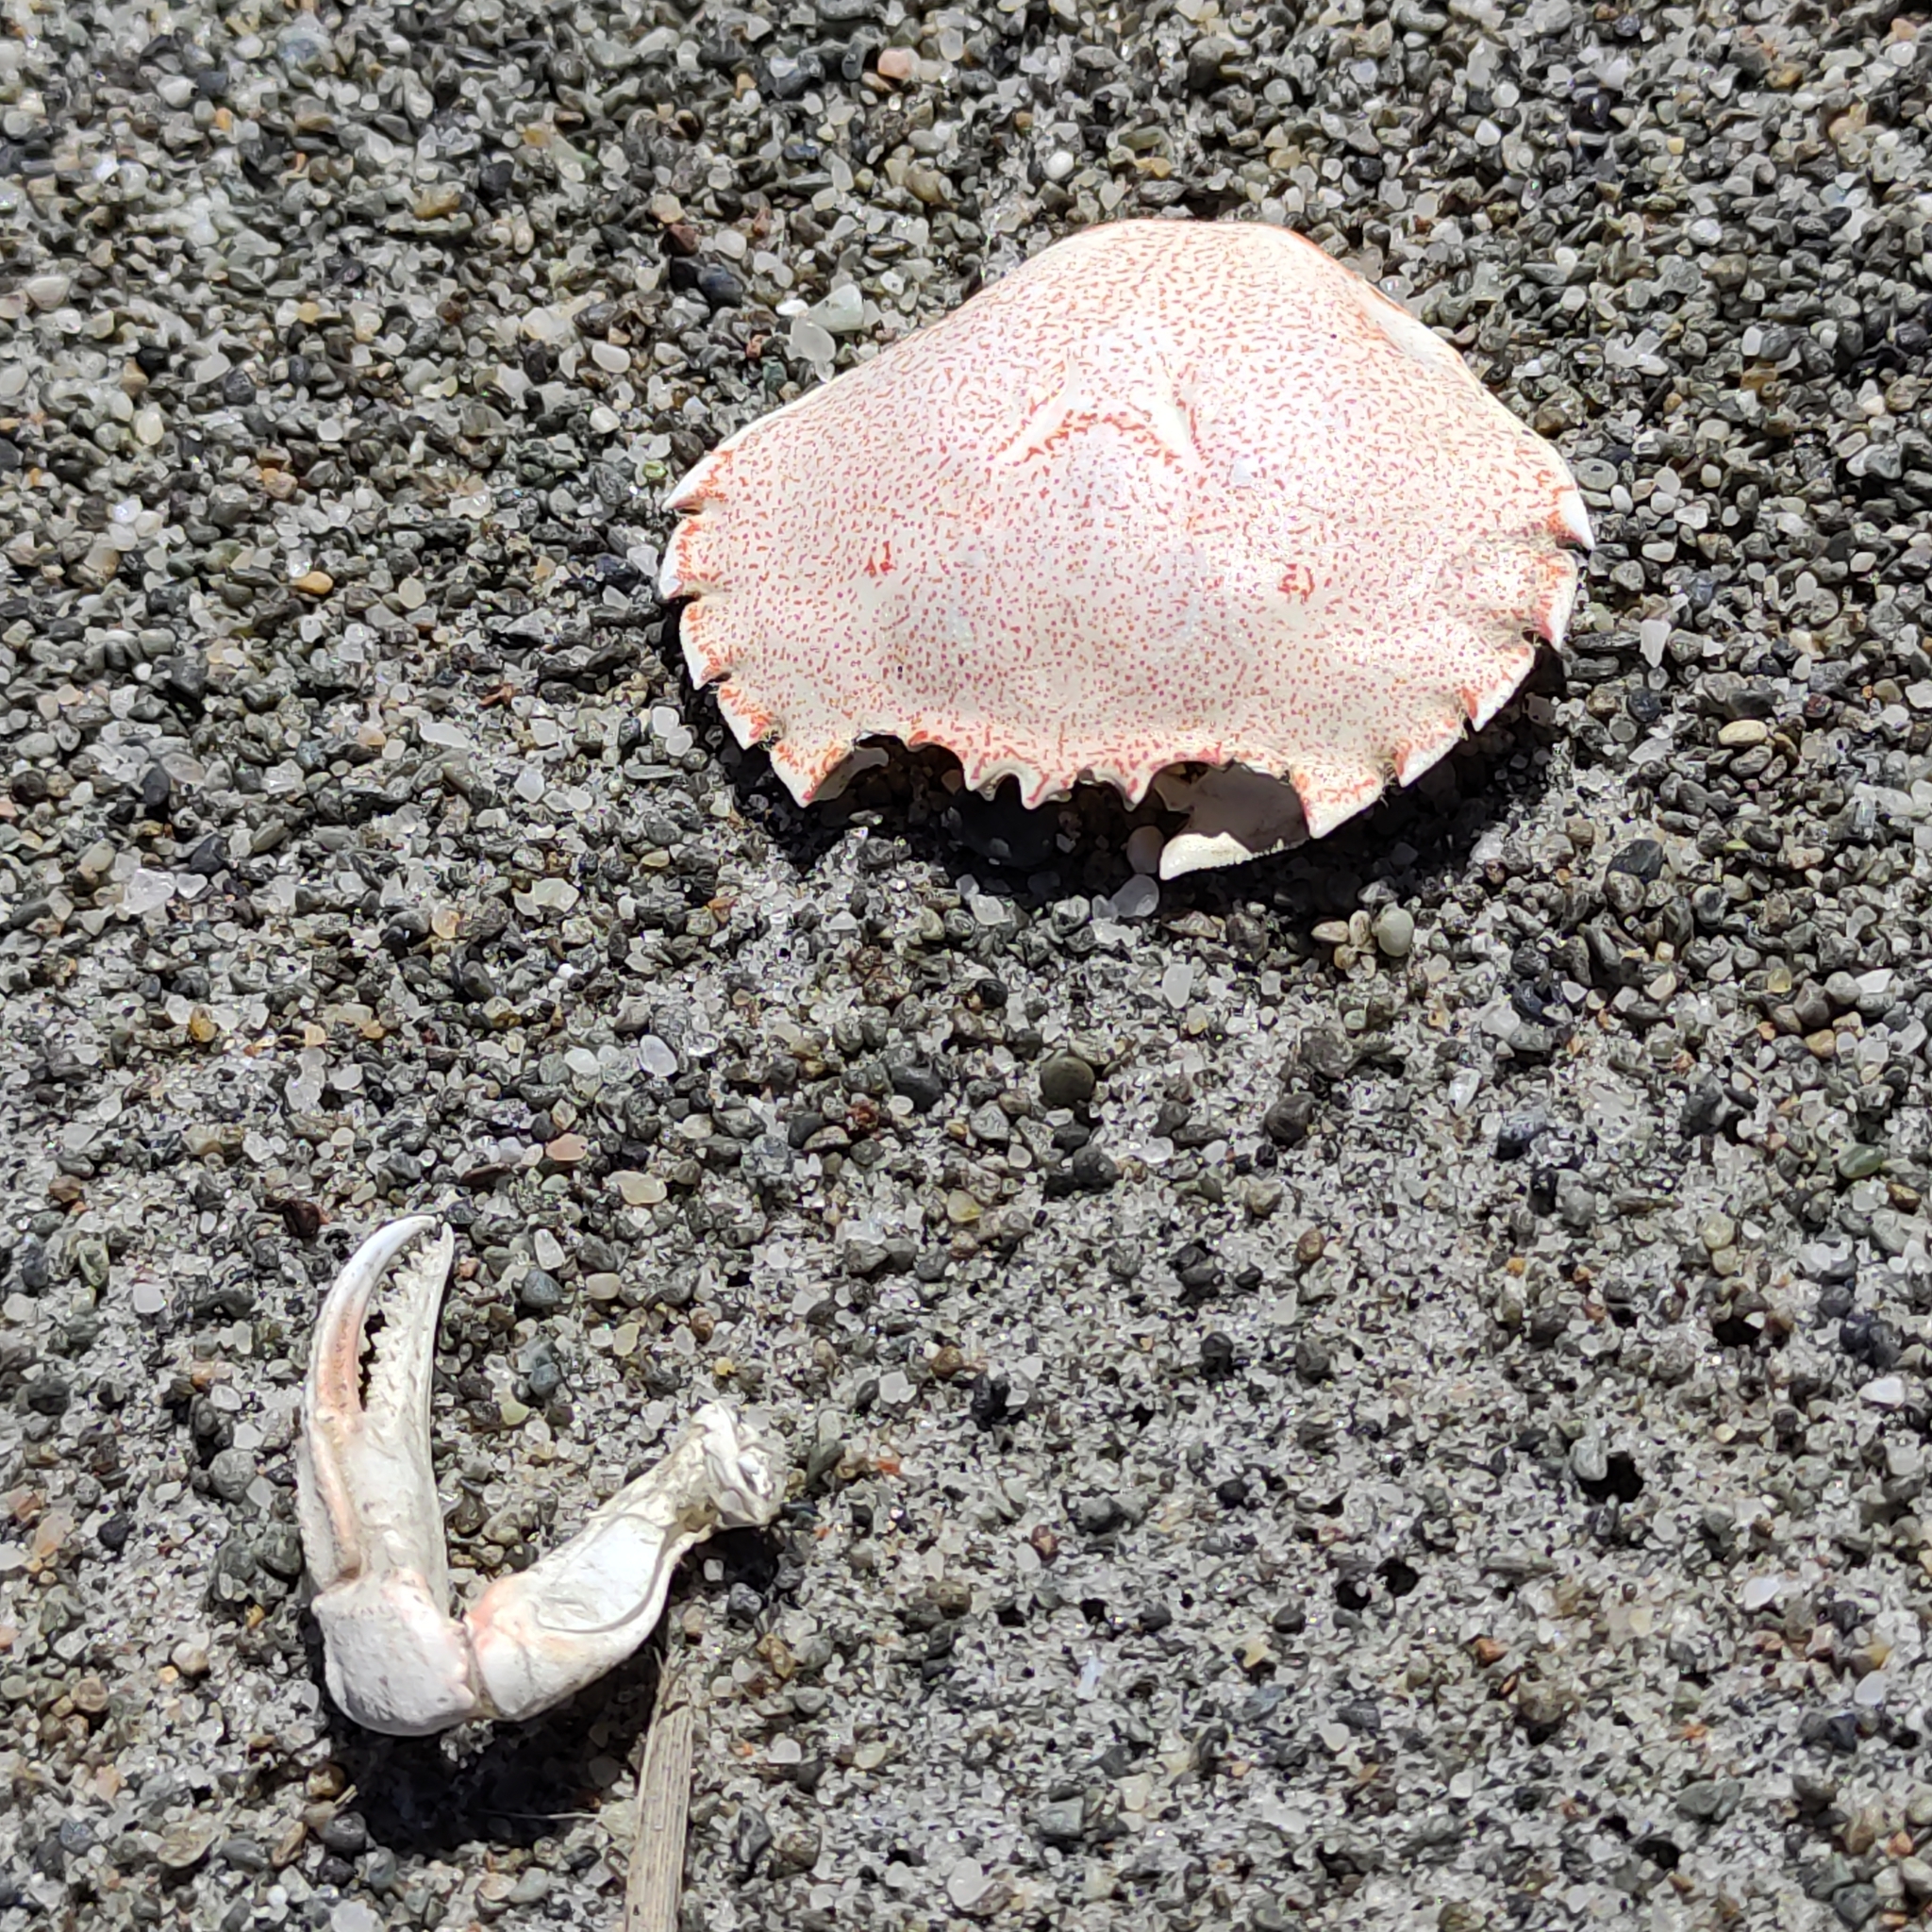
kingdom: Animalia
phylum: Arthropoda
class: Malacostraca
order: Decapoda
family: Ovalipidae
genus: Ovalipes
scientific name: Ovalipes catharus
